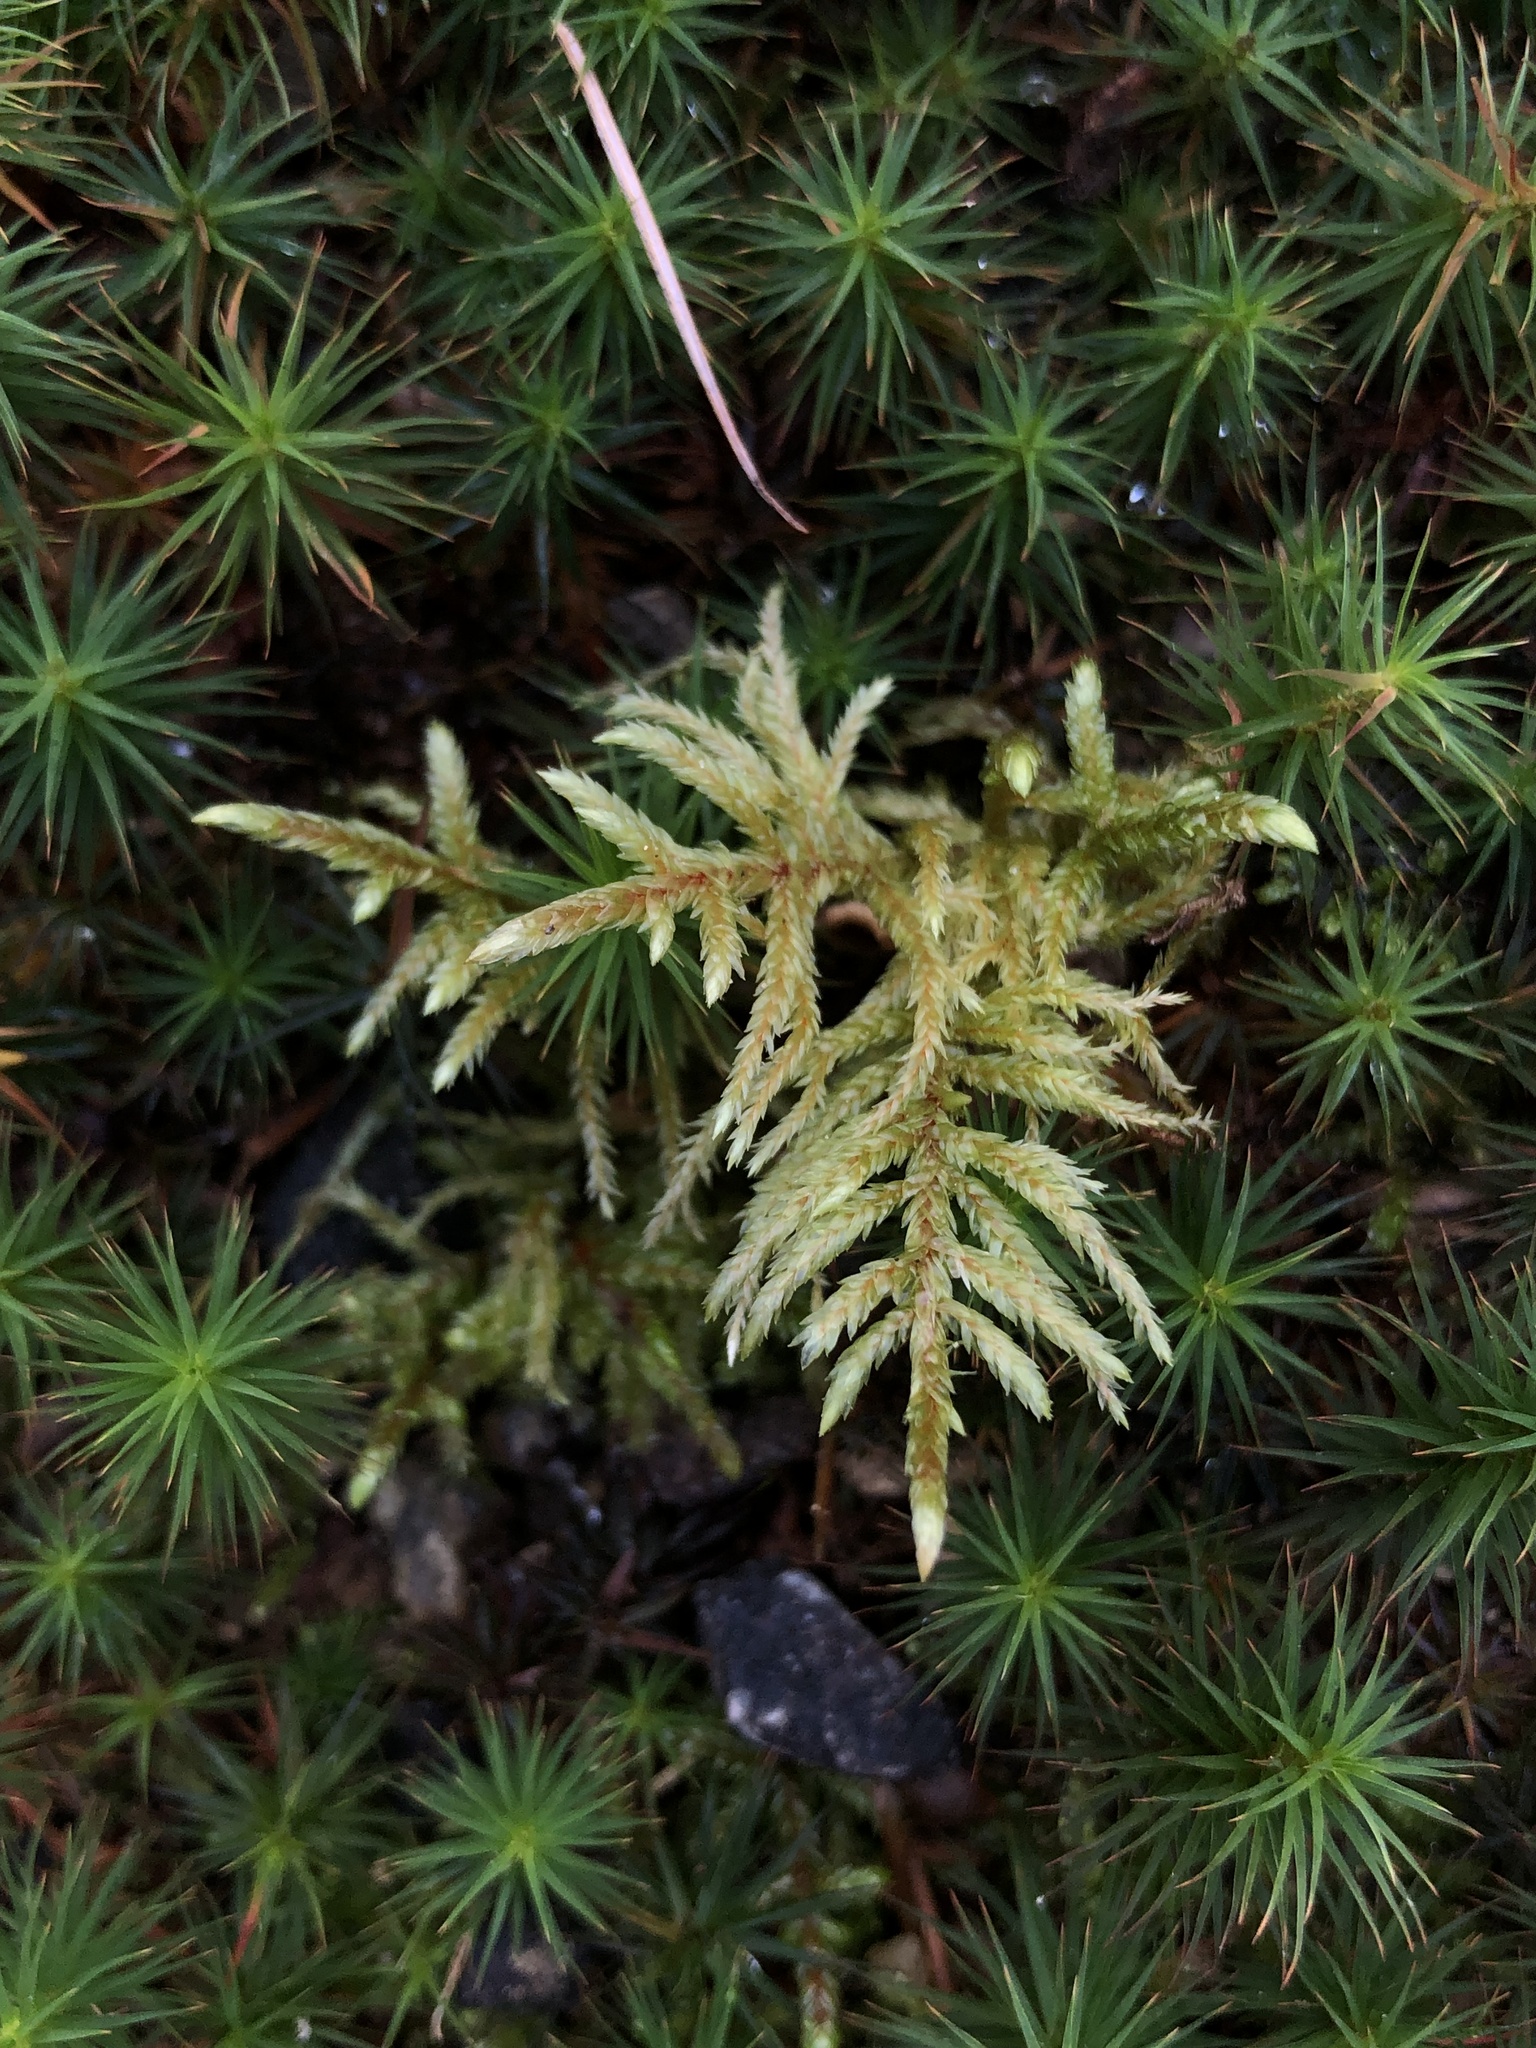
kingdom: Plantae
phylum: Bryophyta
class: Bryopsida
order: Hypnales
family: Hylocomiaceae
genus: Pleurozium
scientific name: Pleurozium schreberi
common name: Red-stemmed feather moss
